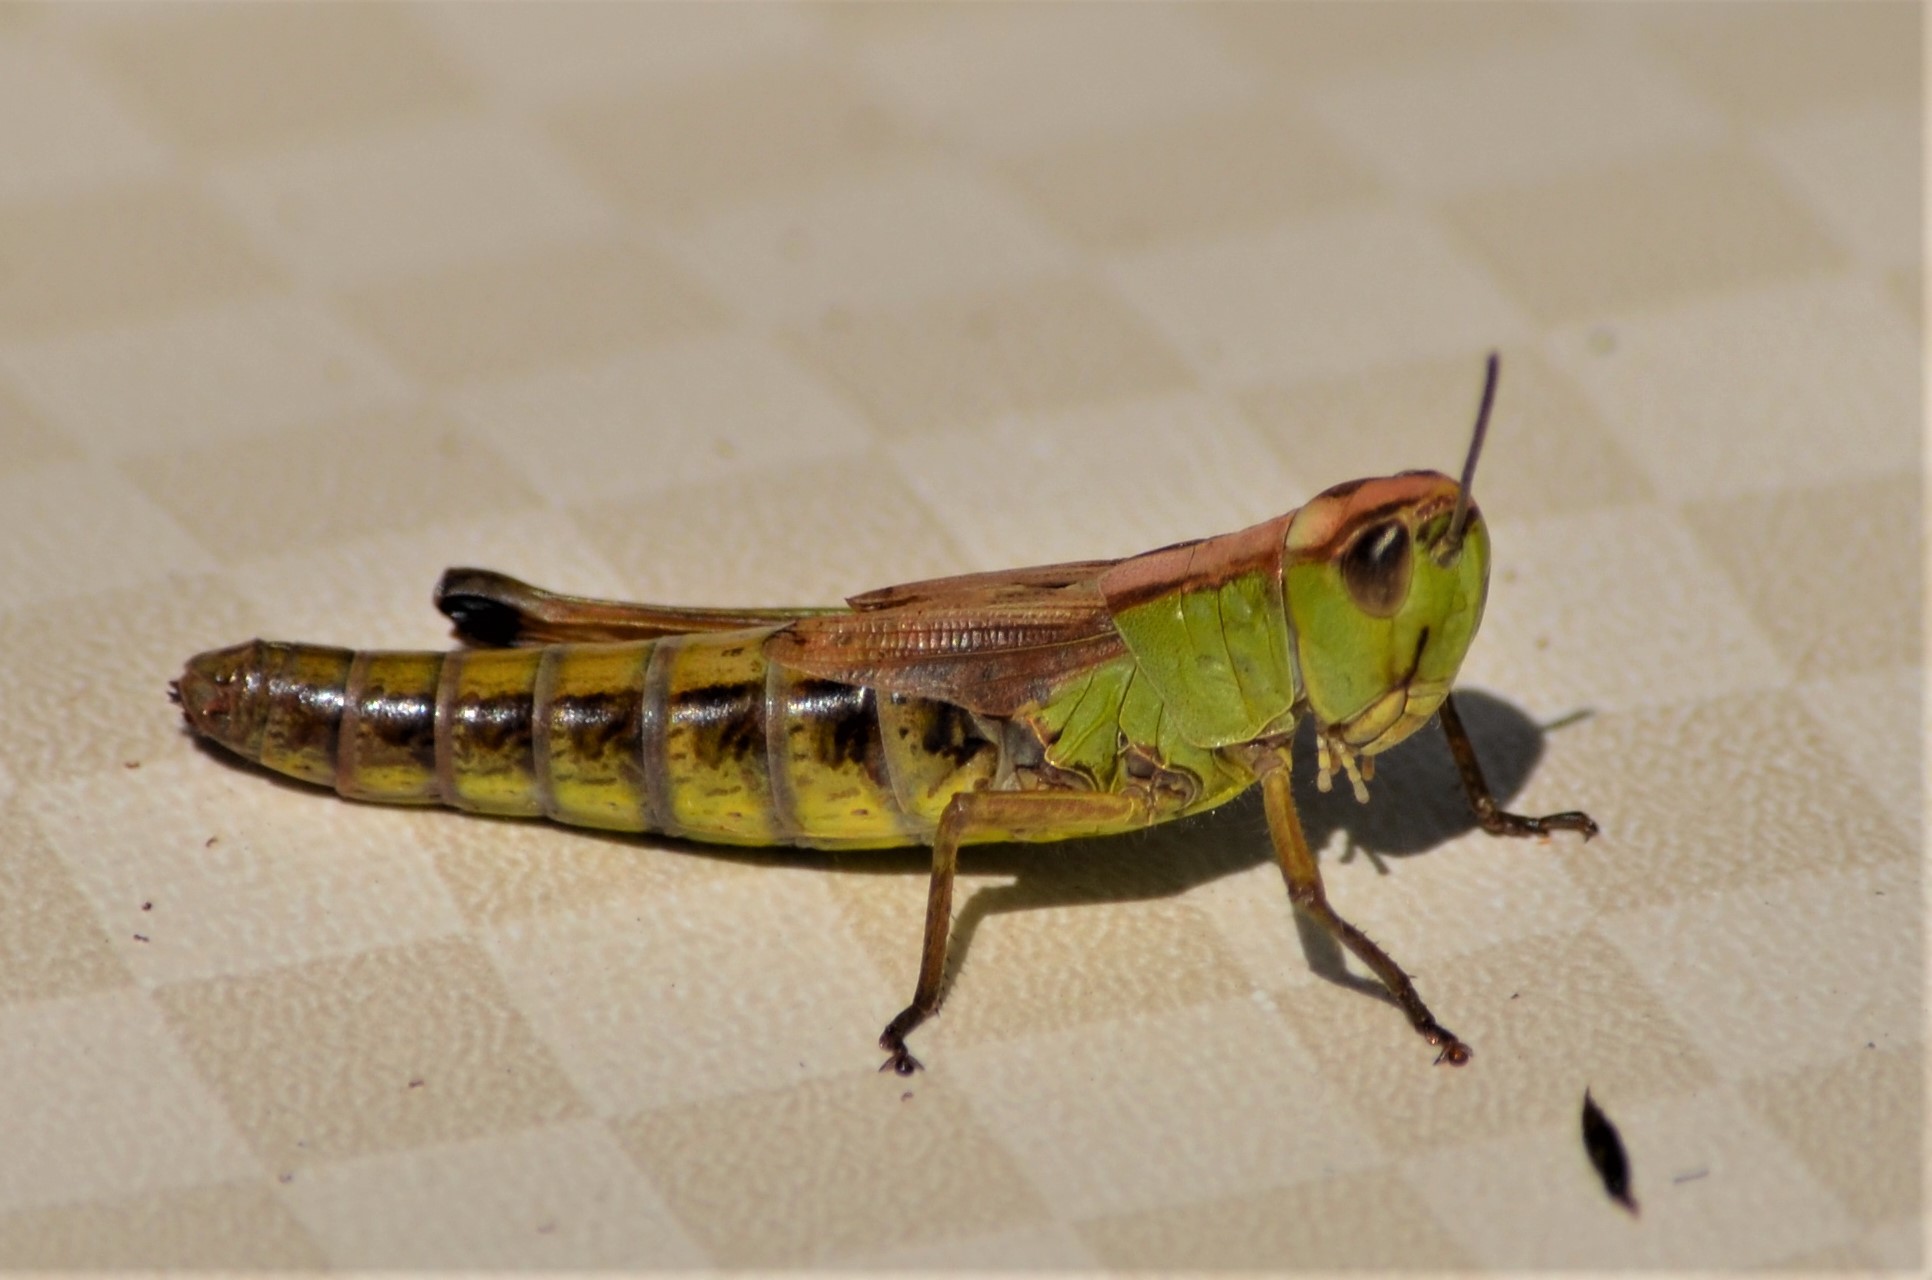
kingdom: Animalia
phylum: Arthropoda
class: Insecta
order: Orthoptera
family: Acrididae
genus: Pseudochorthippus
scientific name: Pseudochorthippus parallelus
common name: Meadow grasshopper
